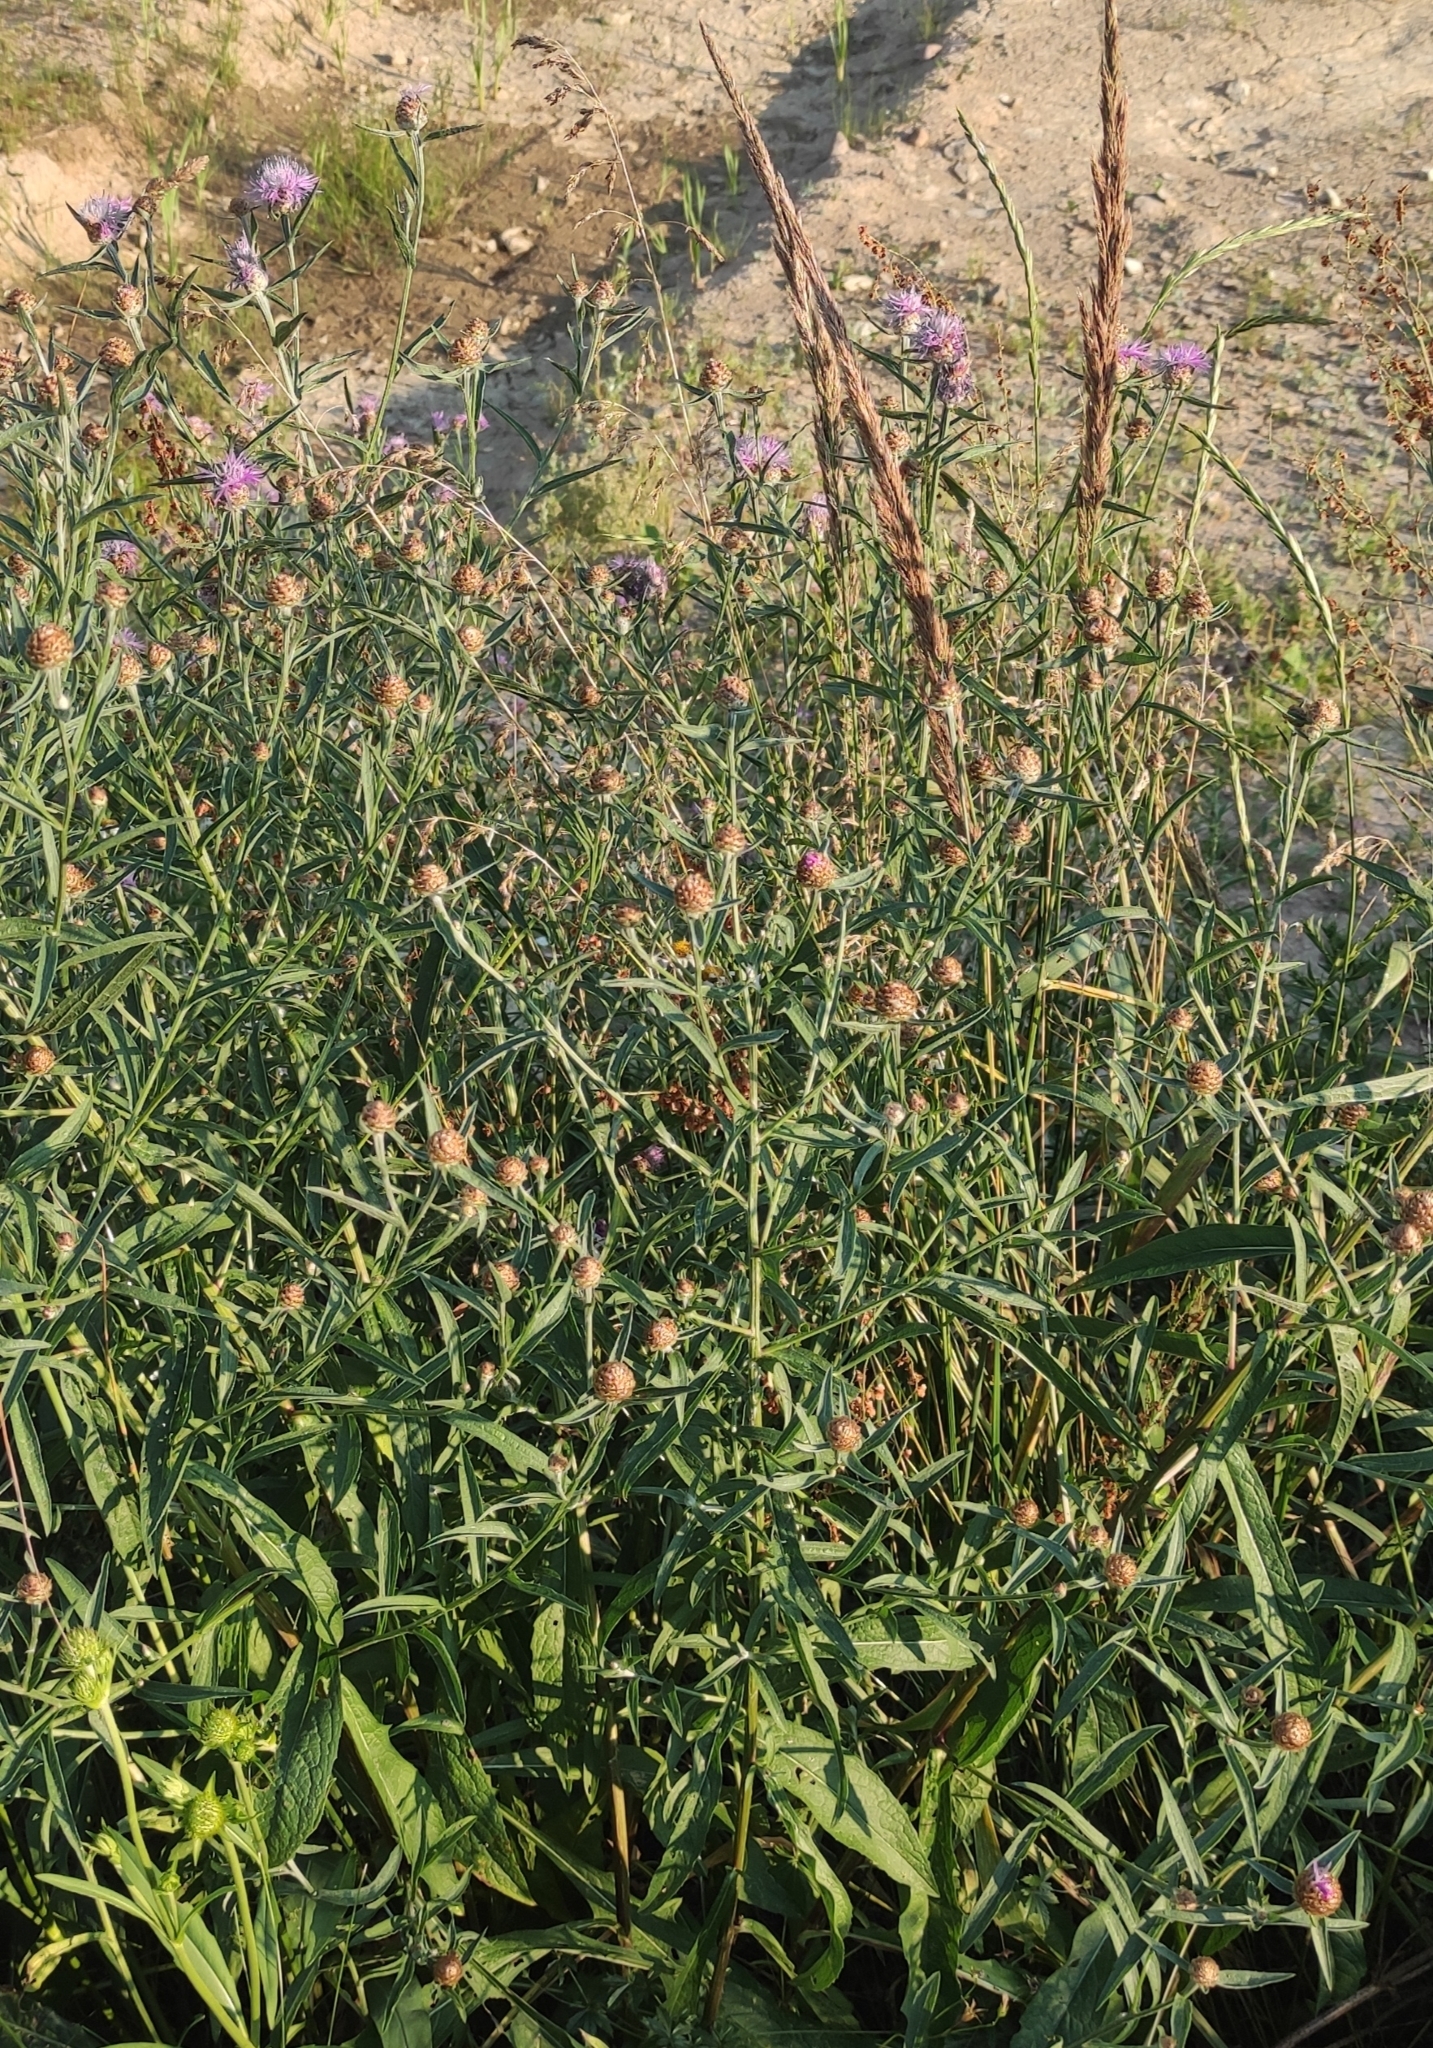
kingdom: Plantae
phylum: Tracheophyta
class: Magnoliopsida
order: Asterales
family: Asteraceae
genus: Centaurea
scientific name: Centaurea jacea
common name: Brown knapweed
